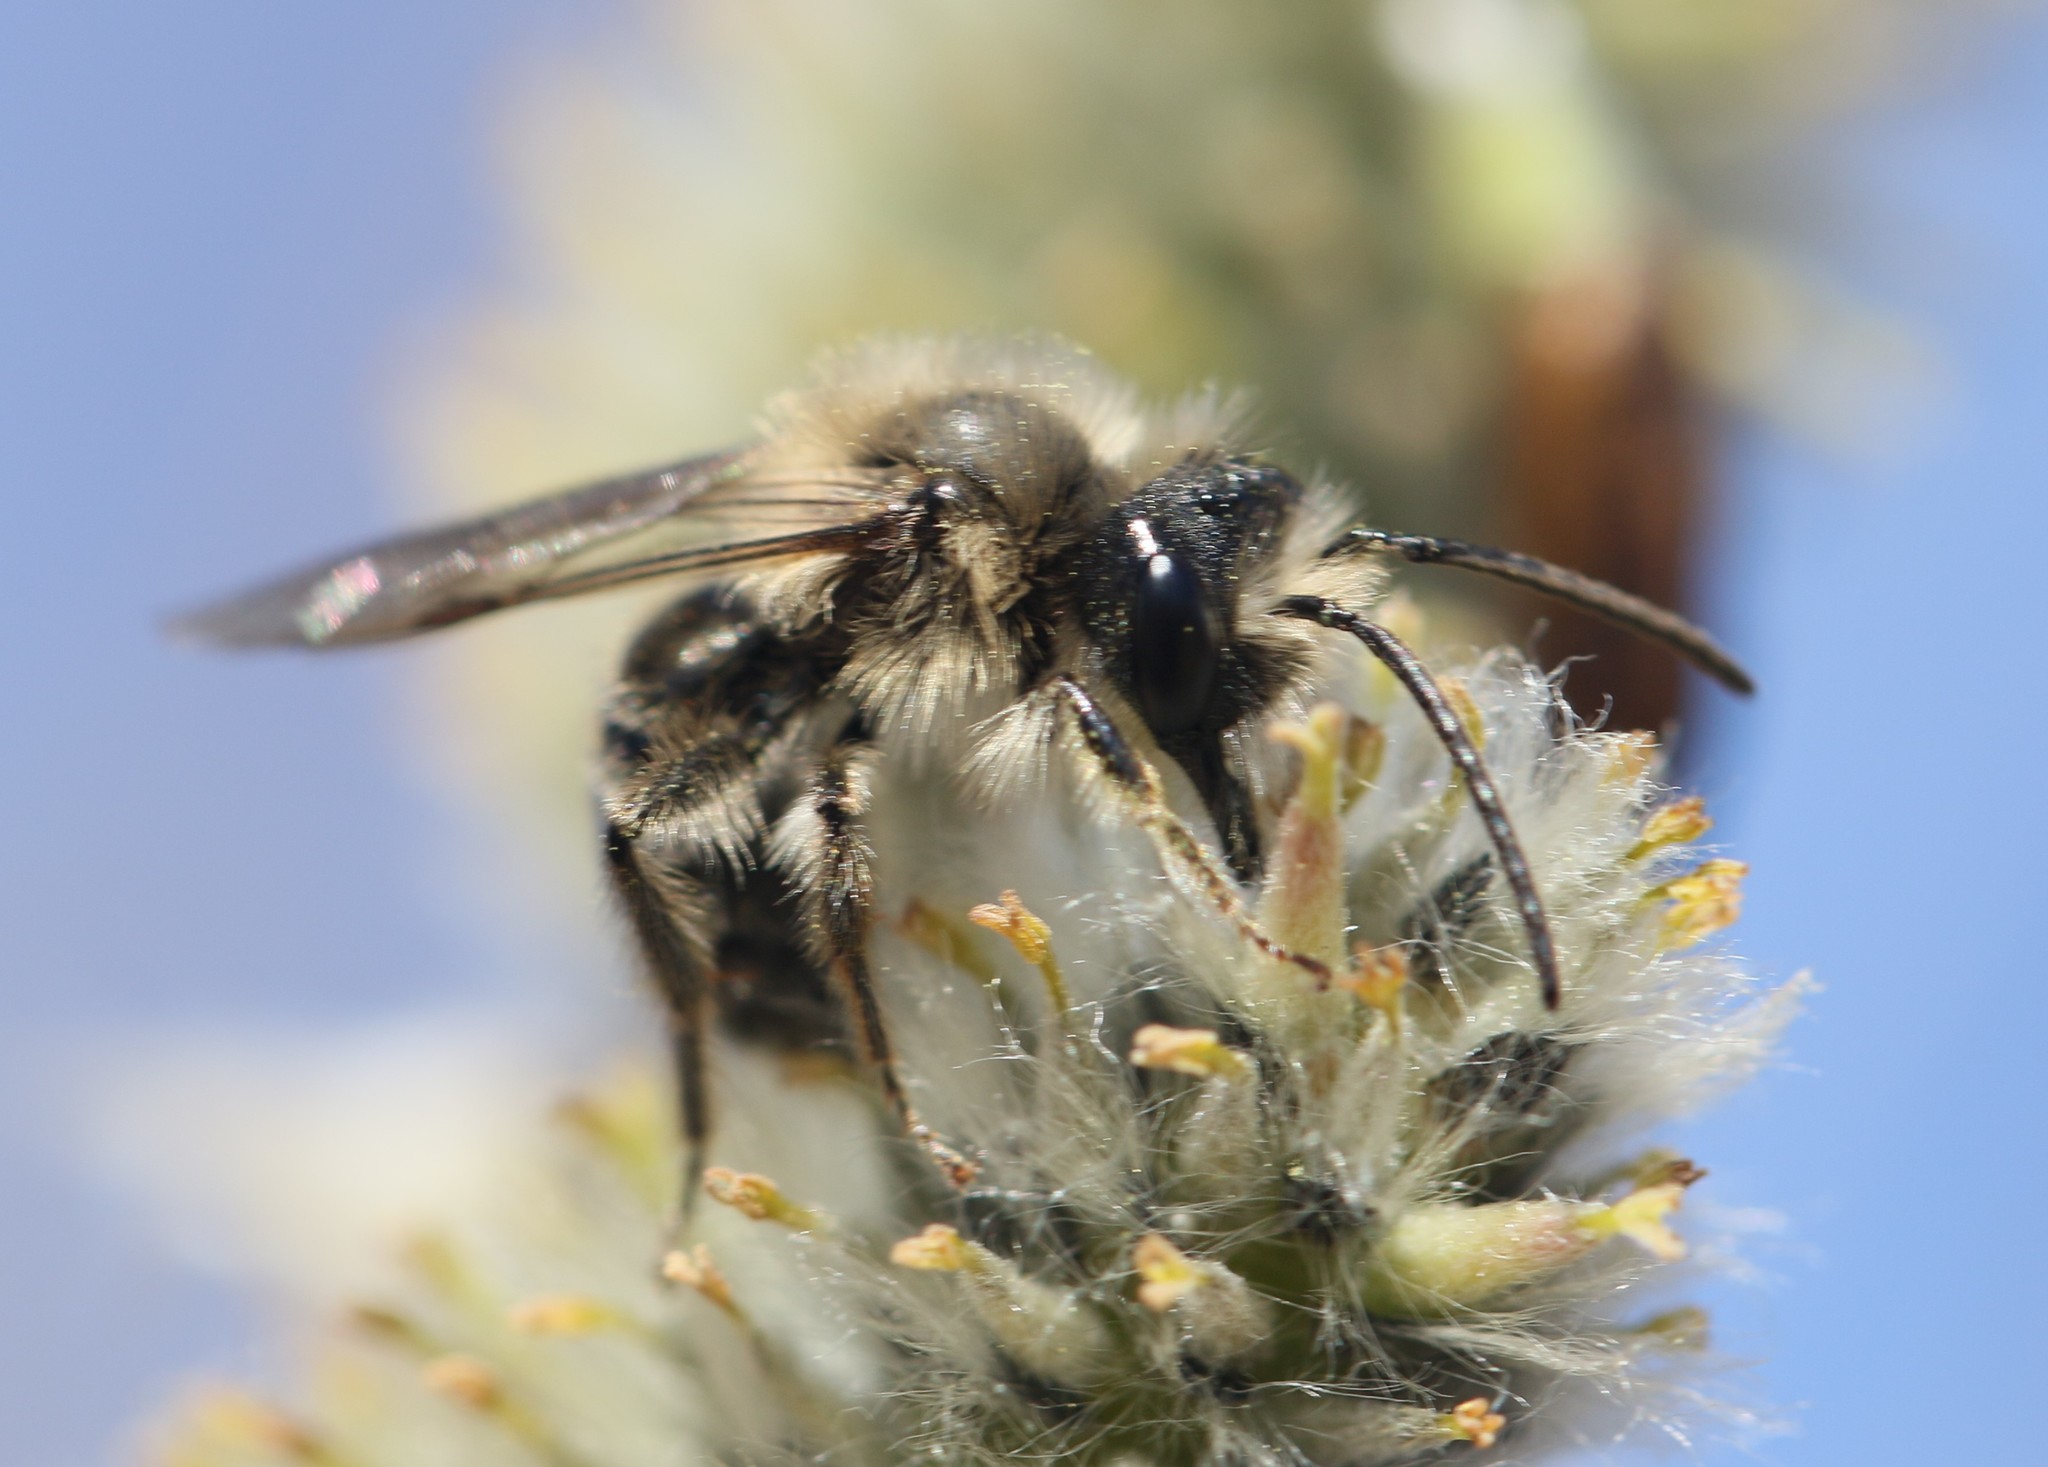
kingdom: Animalia
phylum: Arthropoda
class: Insecta
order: Hymenoptera
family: Andrenidae
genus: Andrena
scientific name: Andrena carlini
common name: Carlin's mining bee
